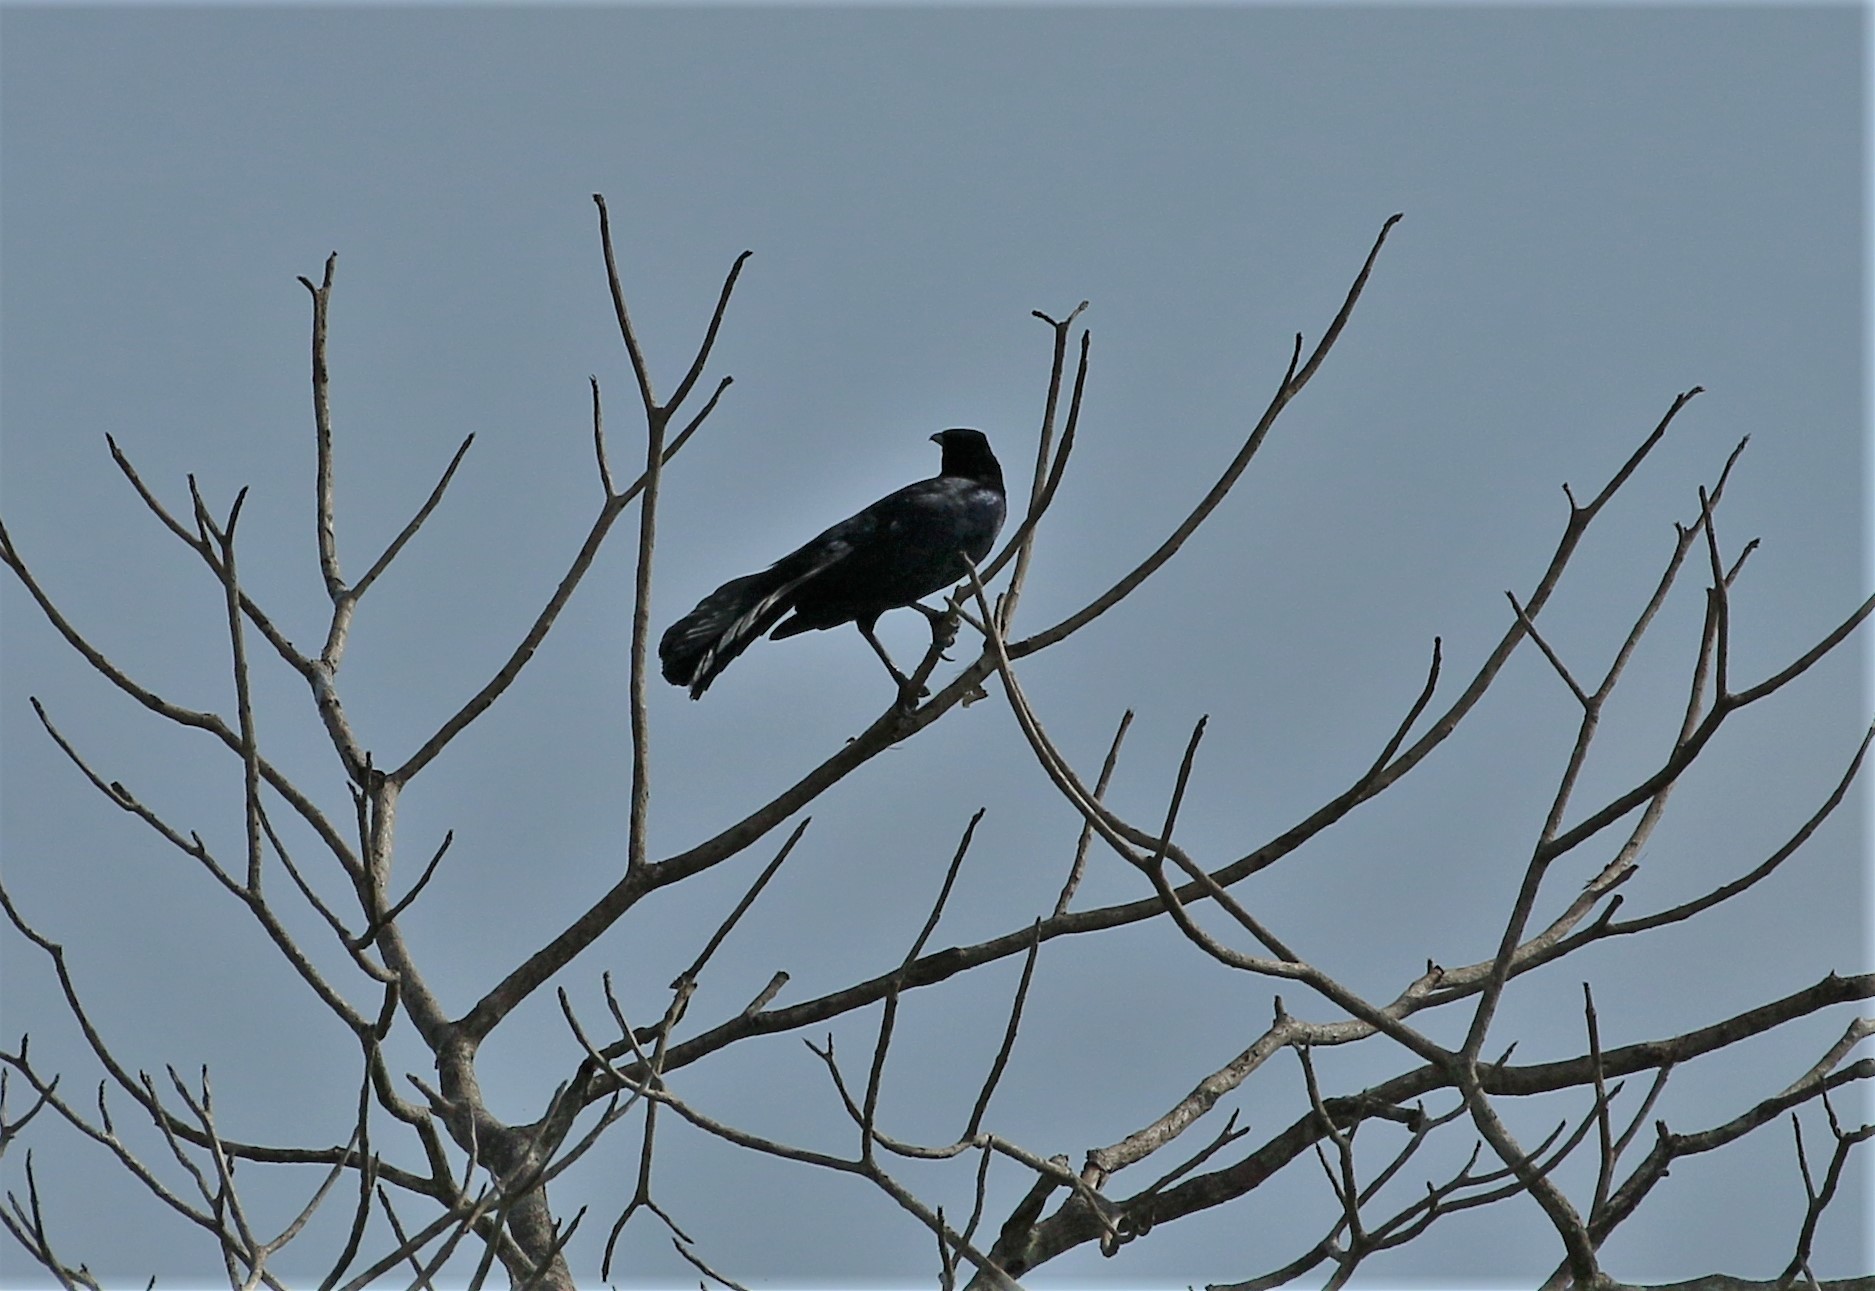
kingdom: Animalia
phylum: Chordata
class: Aves
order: Passeriformes
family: Icteridae
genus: Quiscalus
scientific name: Quiscalus mexicanus
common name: Great-tailed grackle
